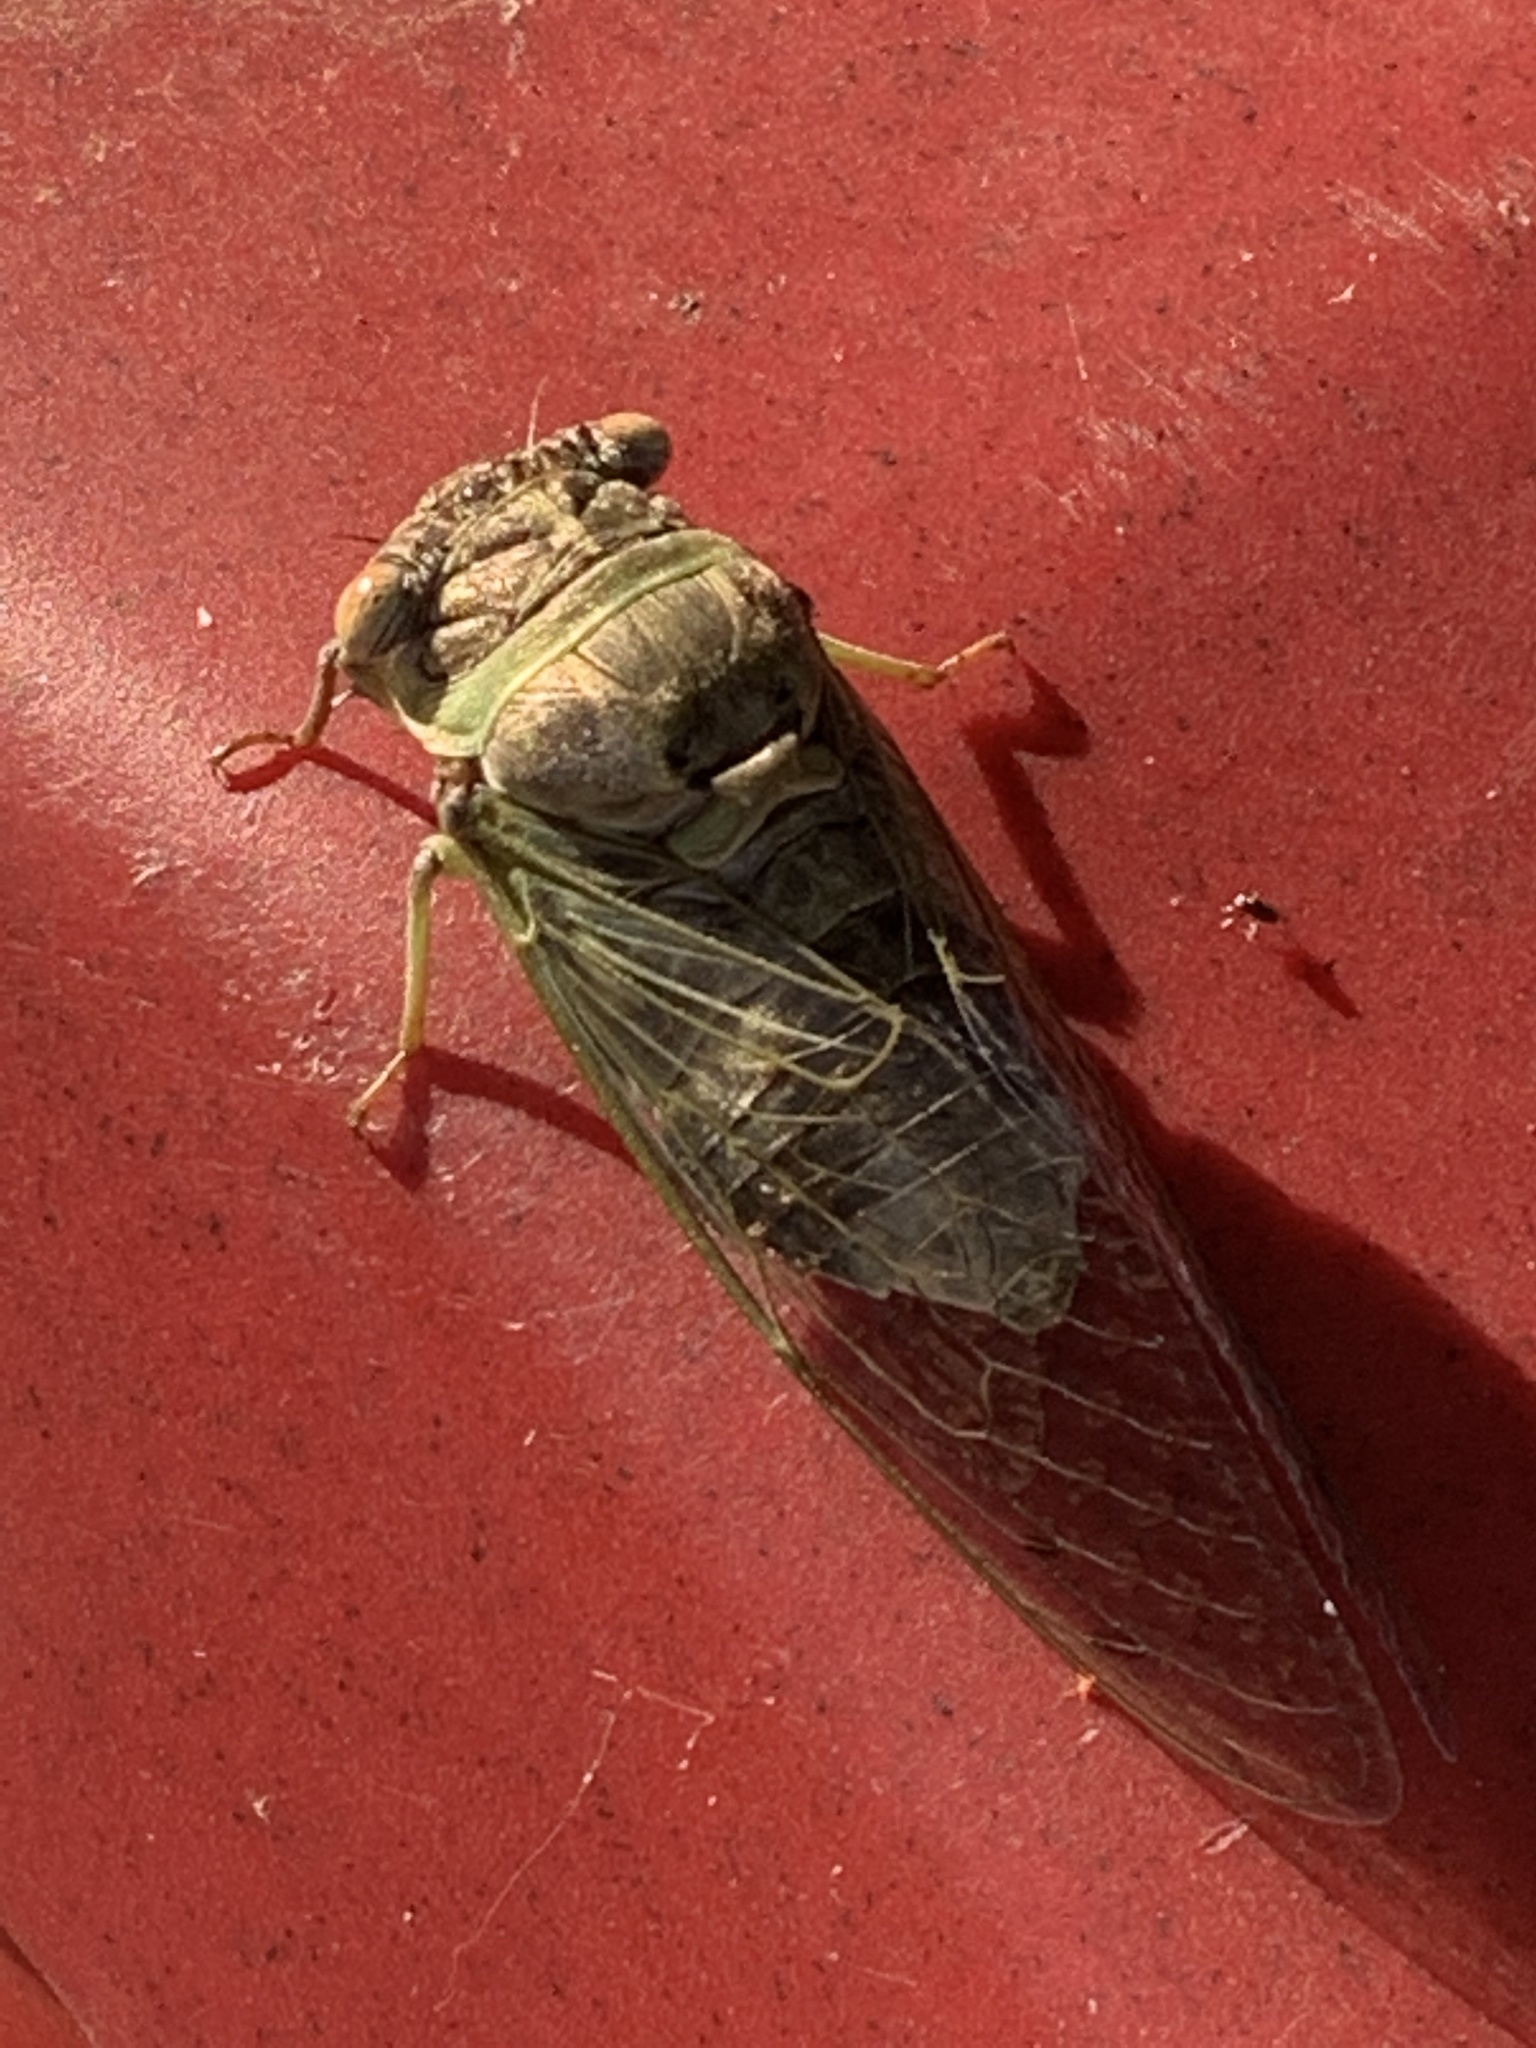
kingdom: Animalia
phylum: Arthropoda
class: Insecta
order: Hemiptera
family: Cicadidae
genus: Diceroprocta
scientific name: Diceroprocta grossa
